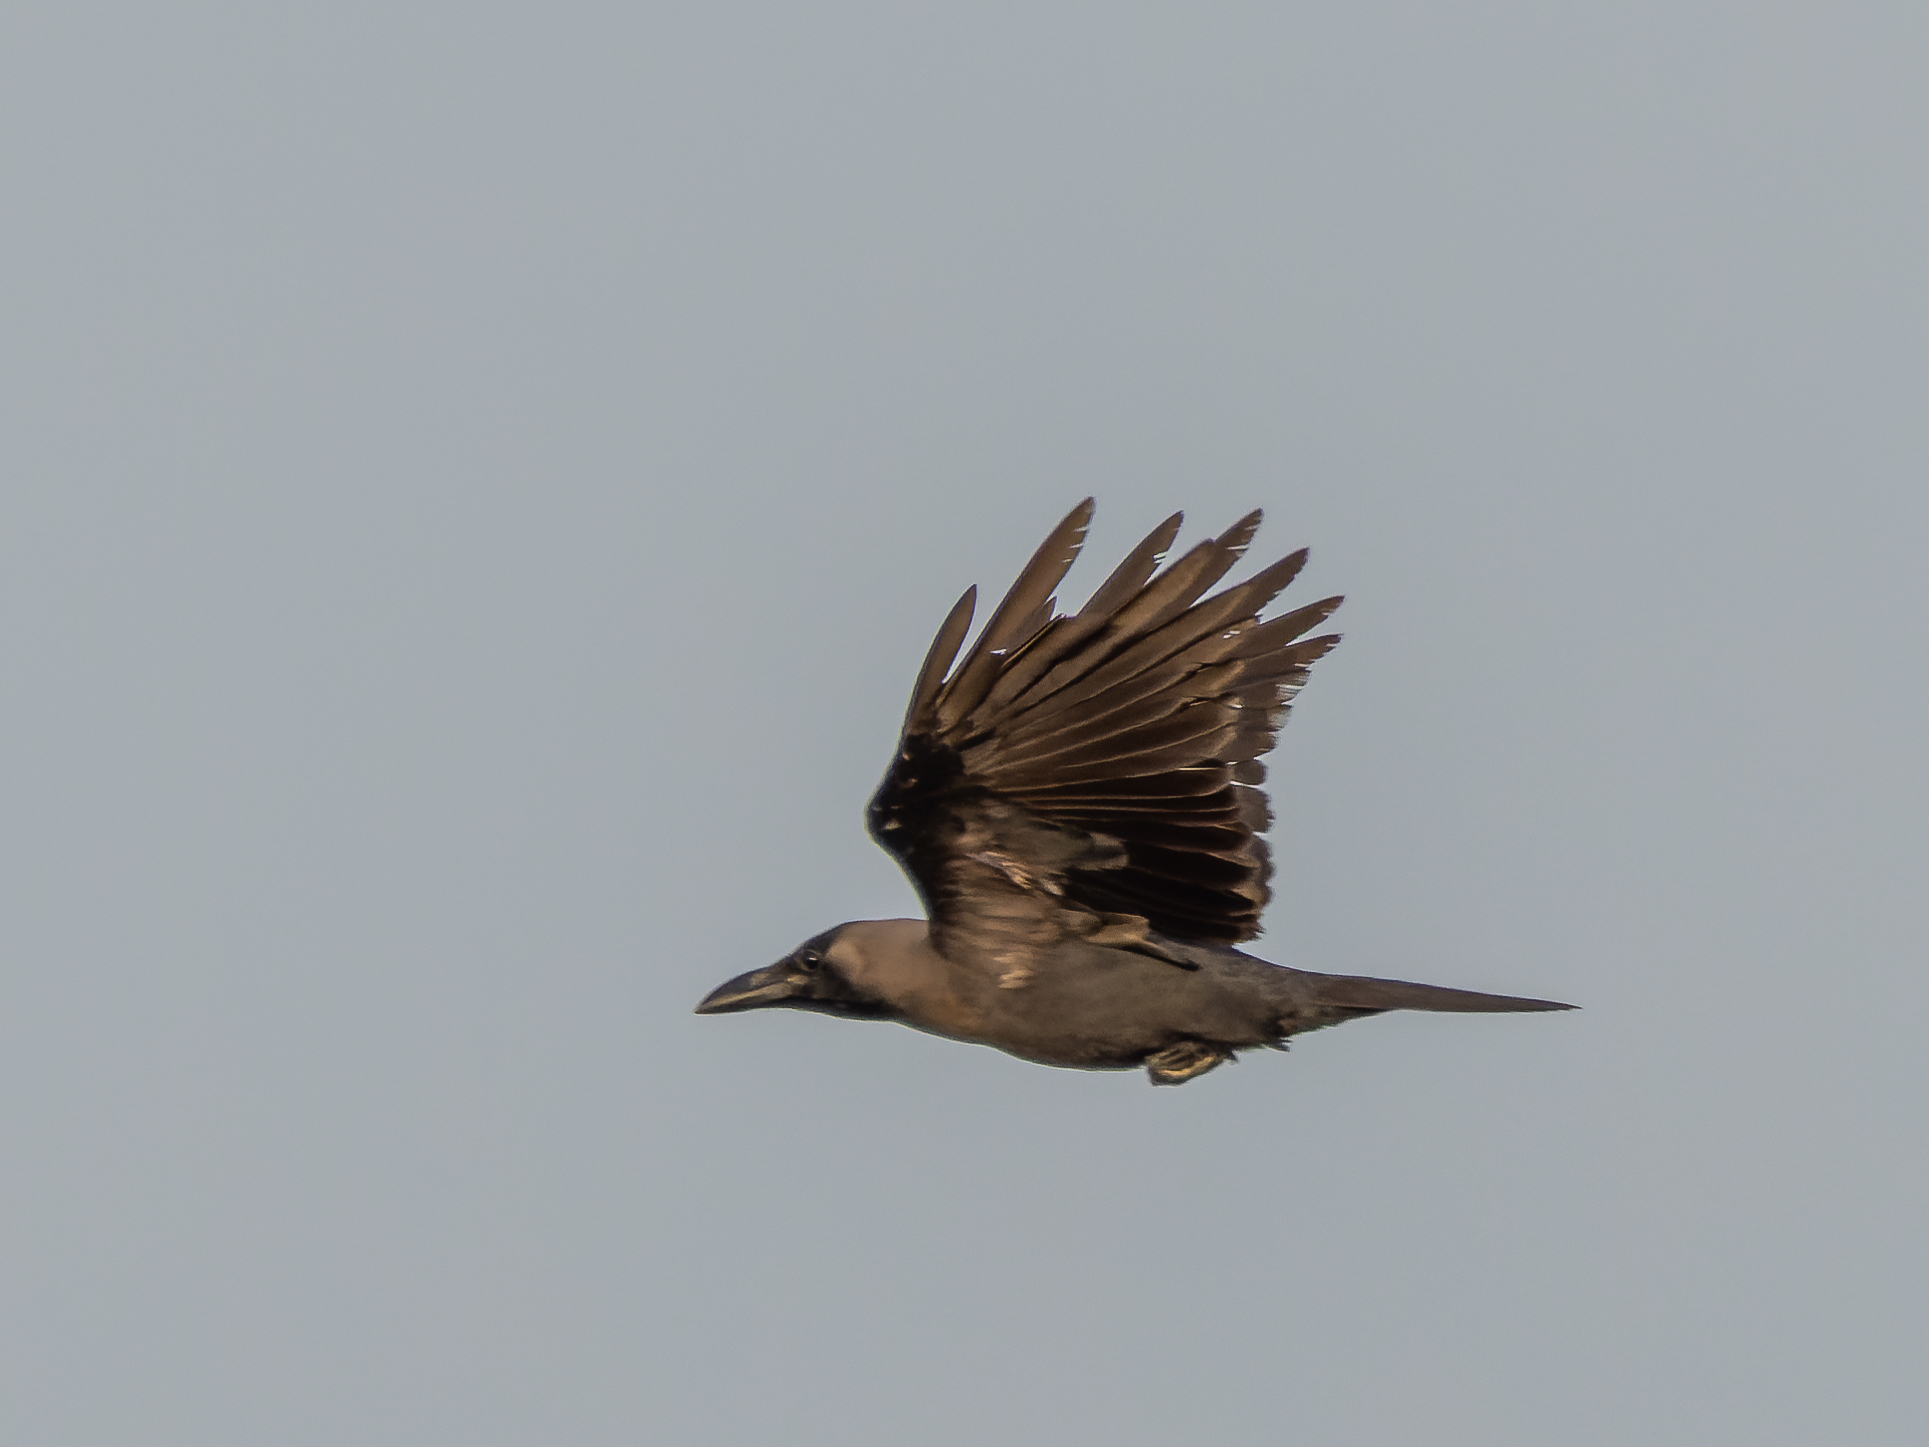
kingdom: Animalia
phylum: Chordata
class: Aves
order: Passeriformes
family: Corvidae
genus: Corvus
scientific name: Corvus splendens
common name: House crow
